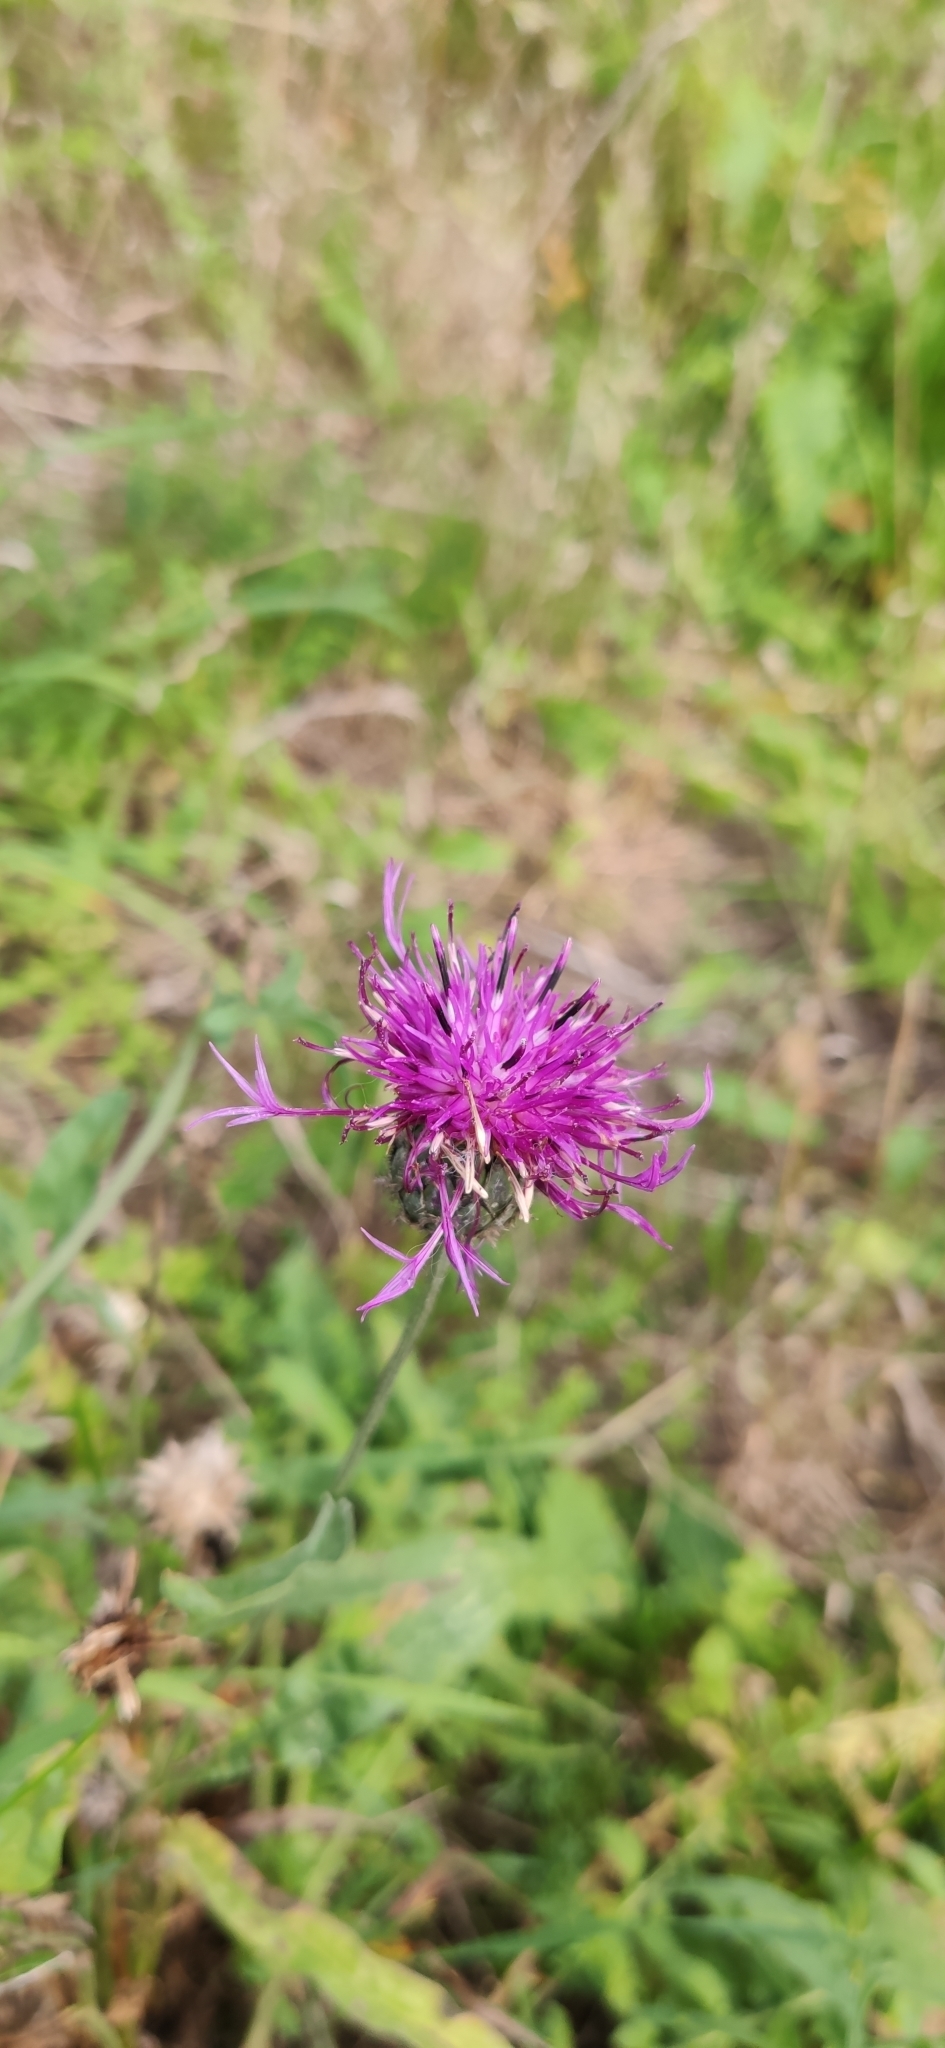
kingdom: Plantae
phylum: Tracheophyta
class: Magnoliopsida
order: Asterales
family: Asteraceae
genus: Centaurea
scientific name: Centaurea scabiosa
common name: Greater knapweed
